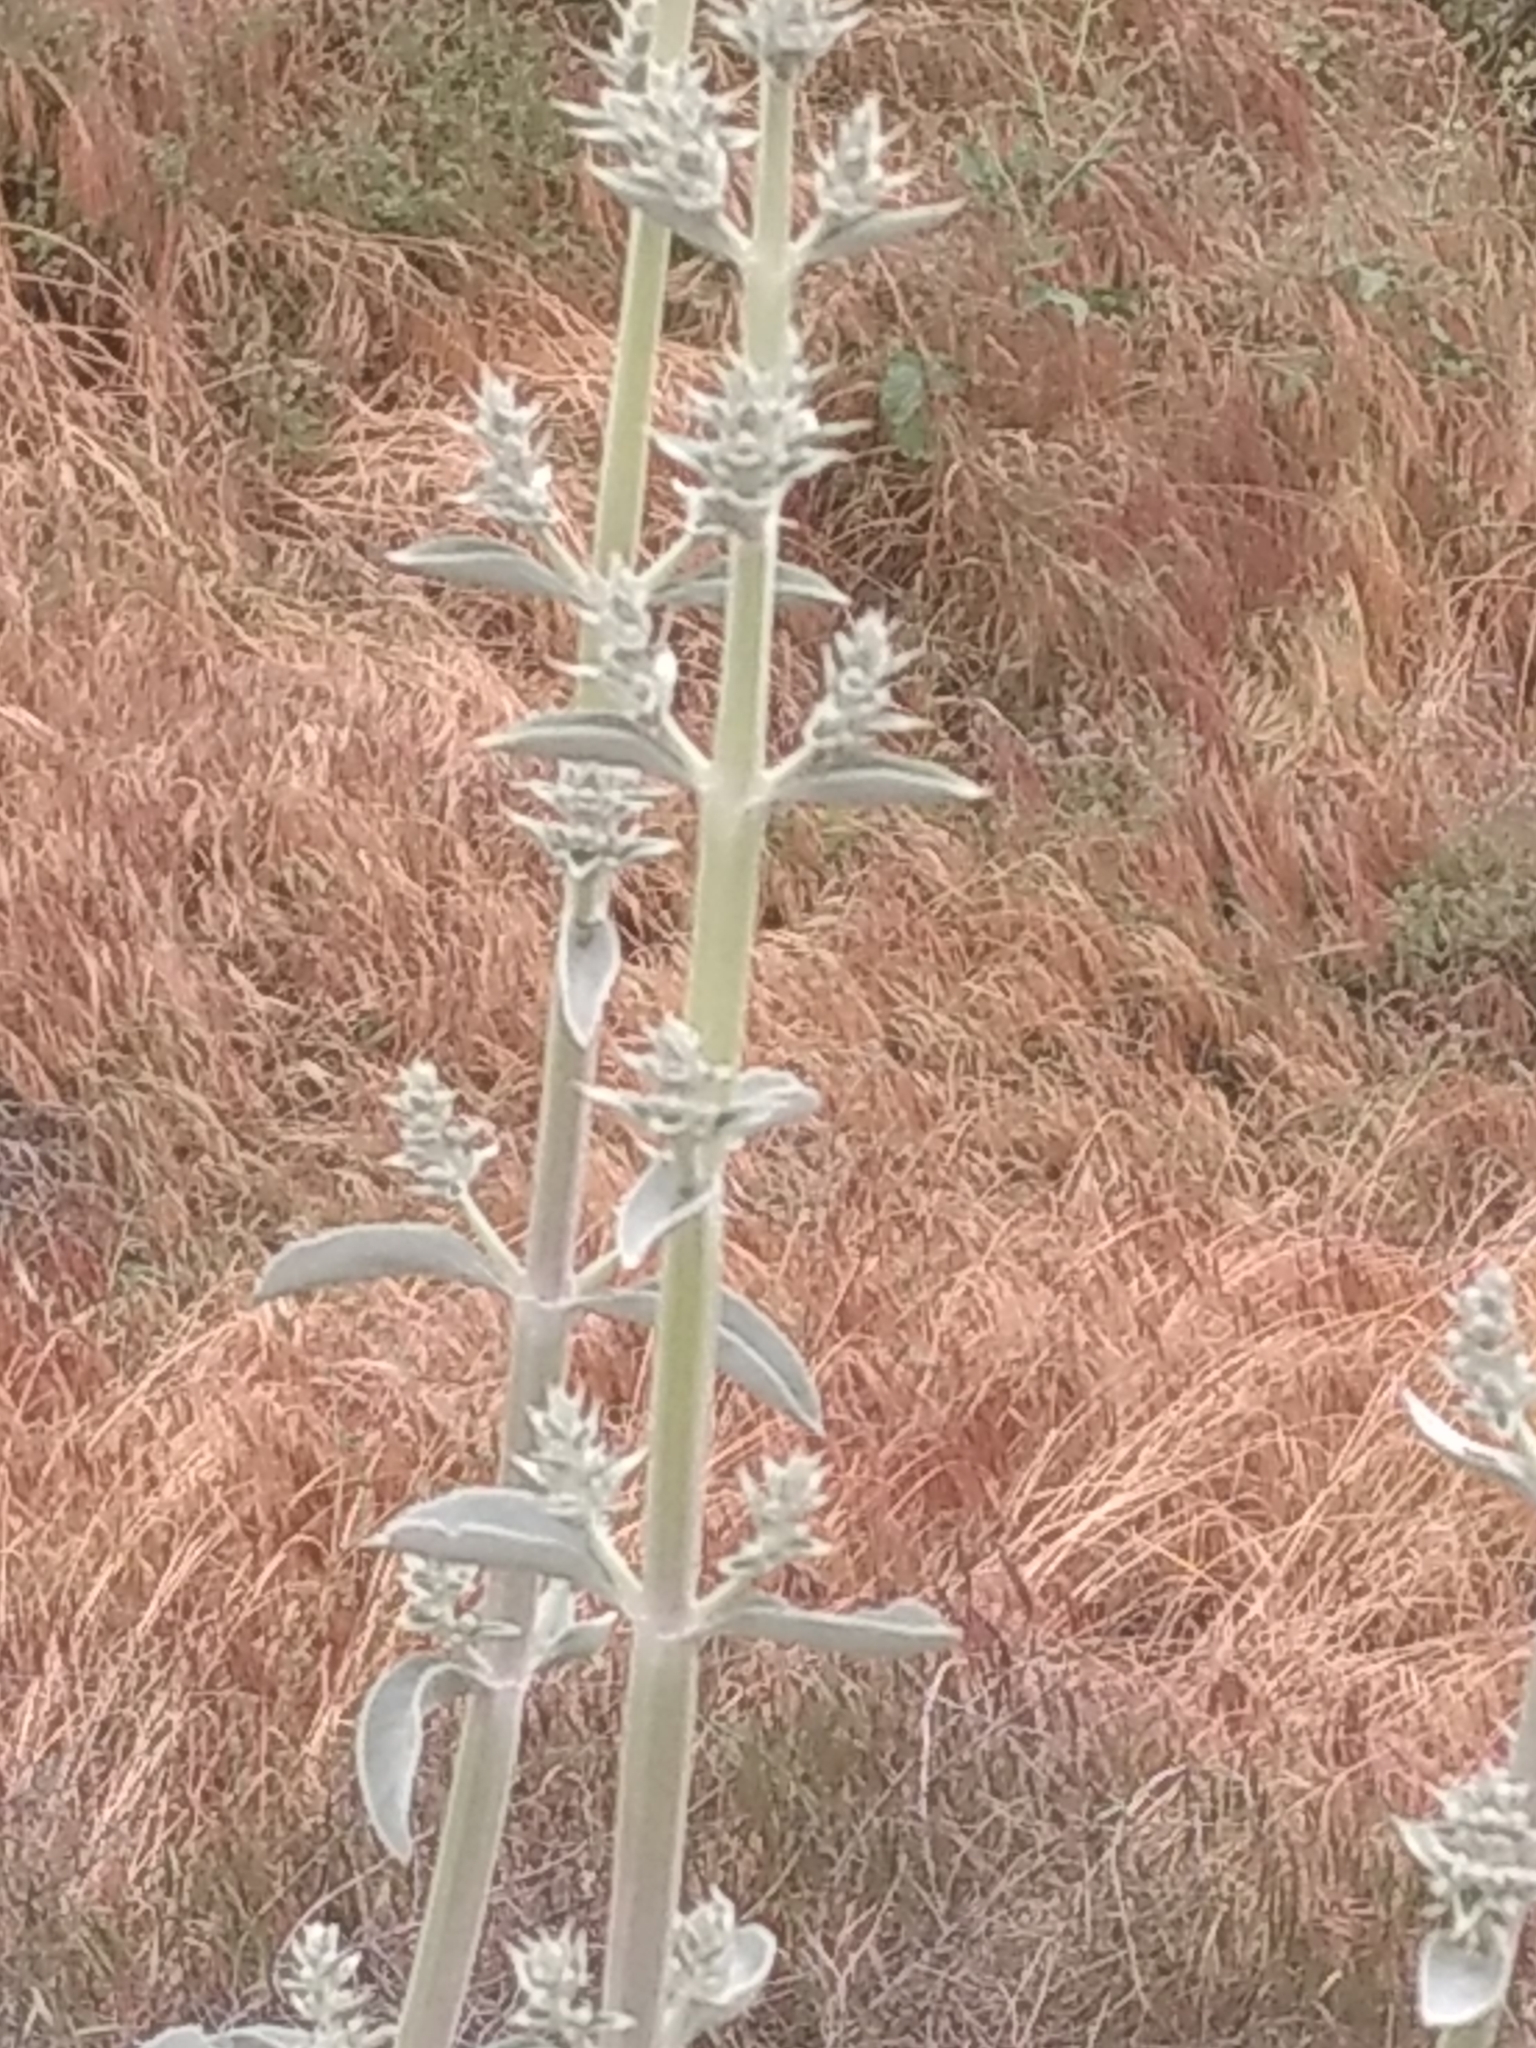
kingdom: Plantae
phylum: Tracheophyta
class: Magnoliopsida
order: Lamiales
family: Lamiaceae
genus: Salvia
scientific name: Salvia apiana
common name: White sage
